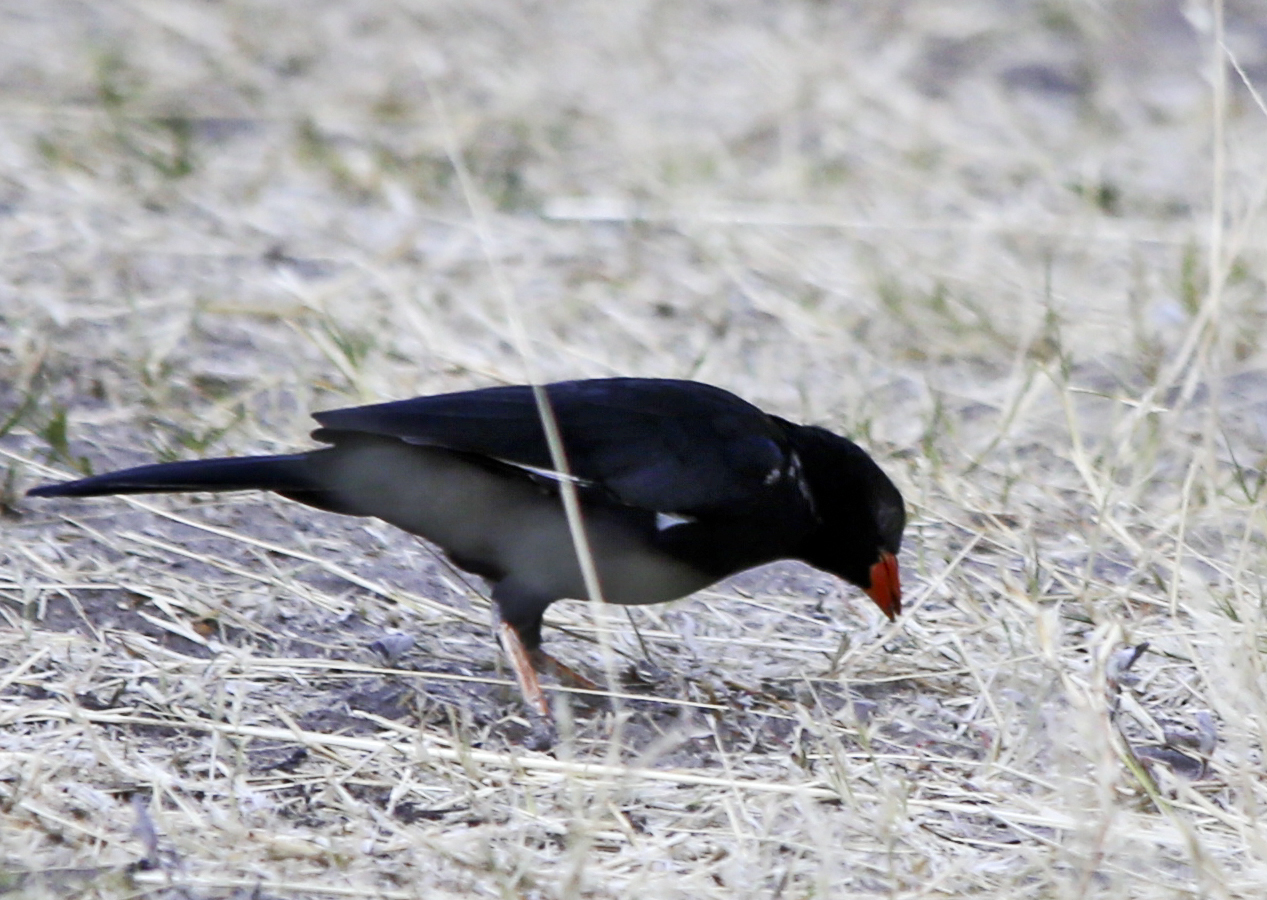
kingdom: Animalia
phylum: Chordata
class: Aves
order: Passeriformes
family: Ploceidae
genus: Bubalornis
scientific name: Bubalornis niger
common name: Red-billed buffalo weaver
